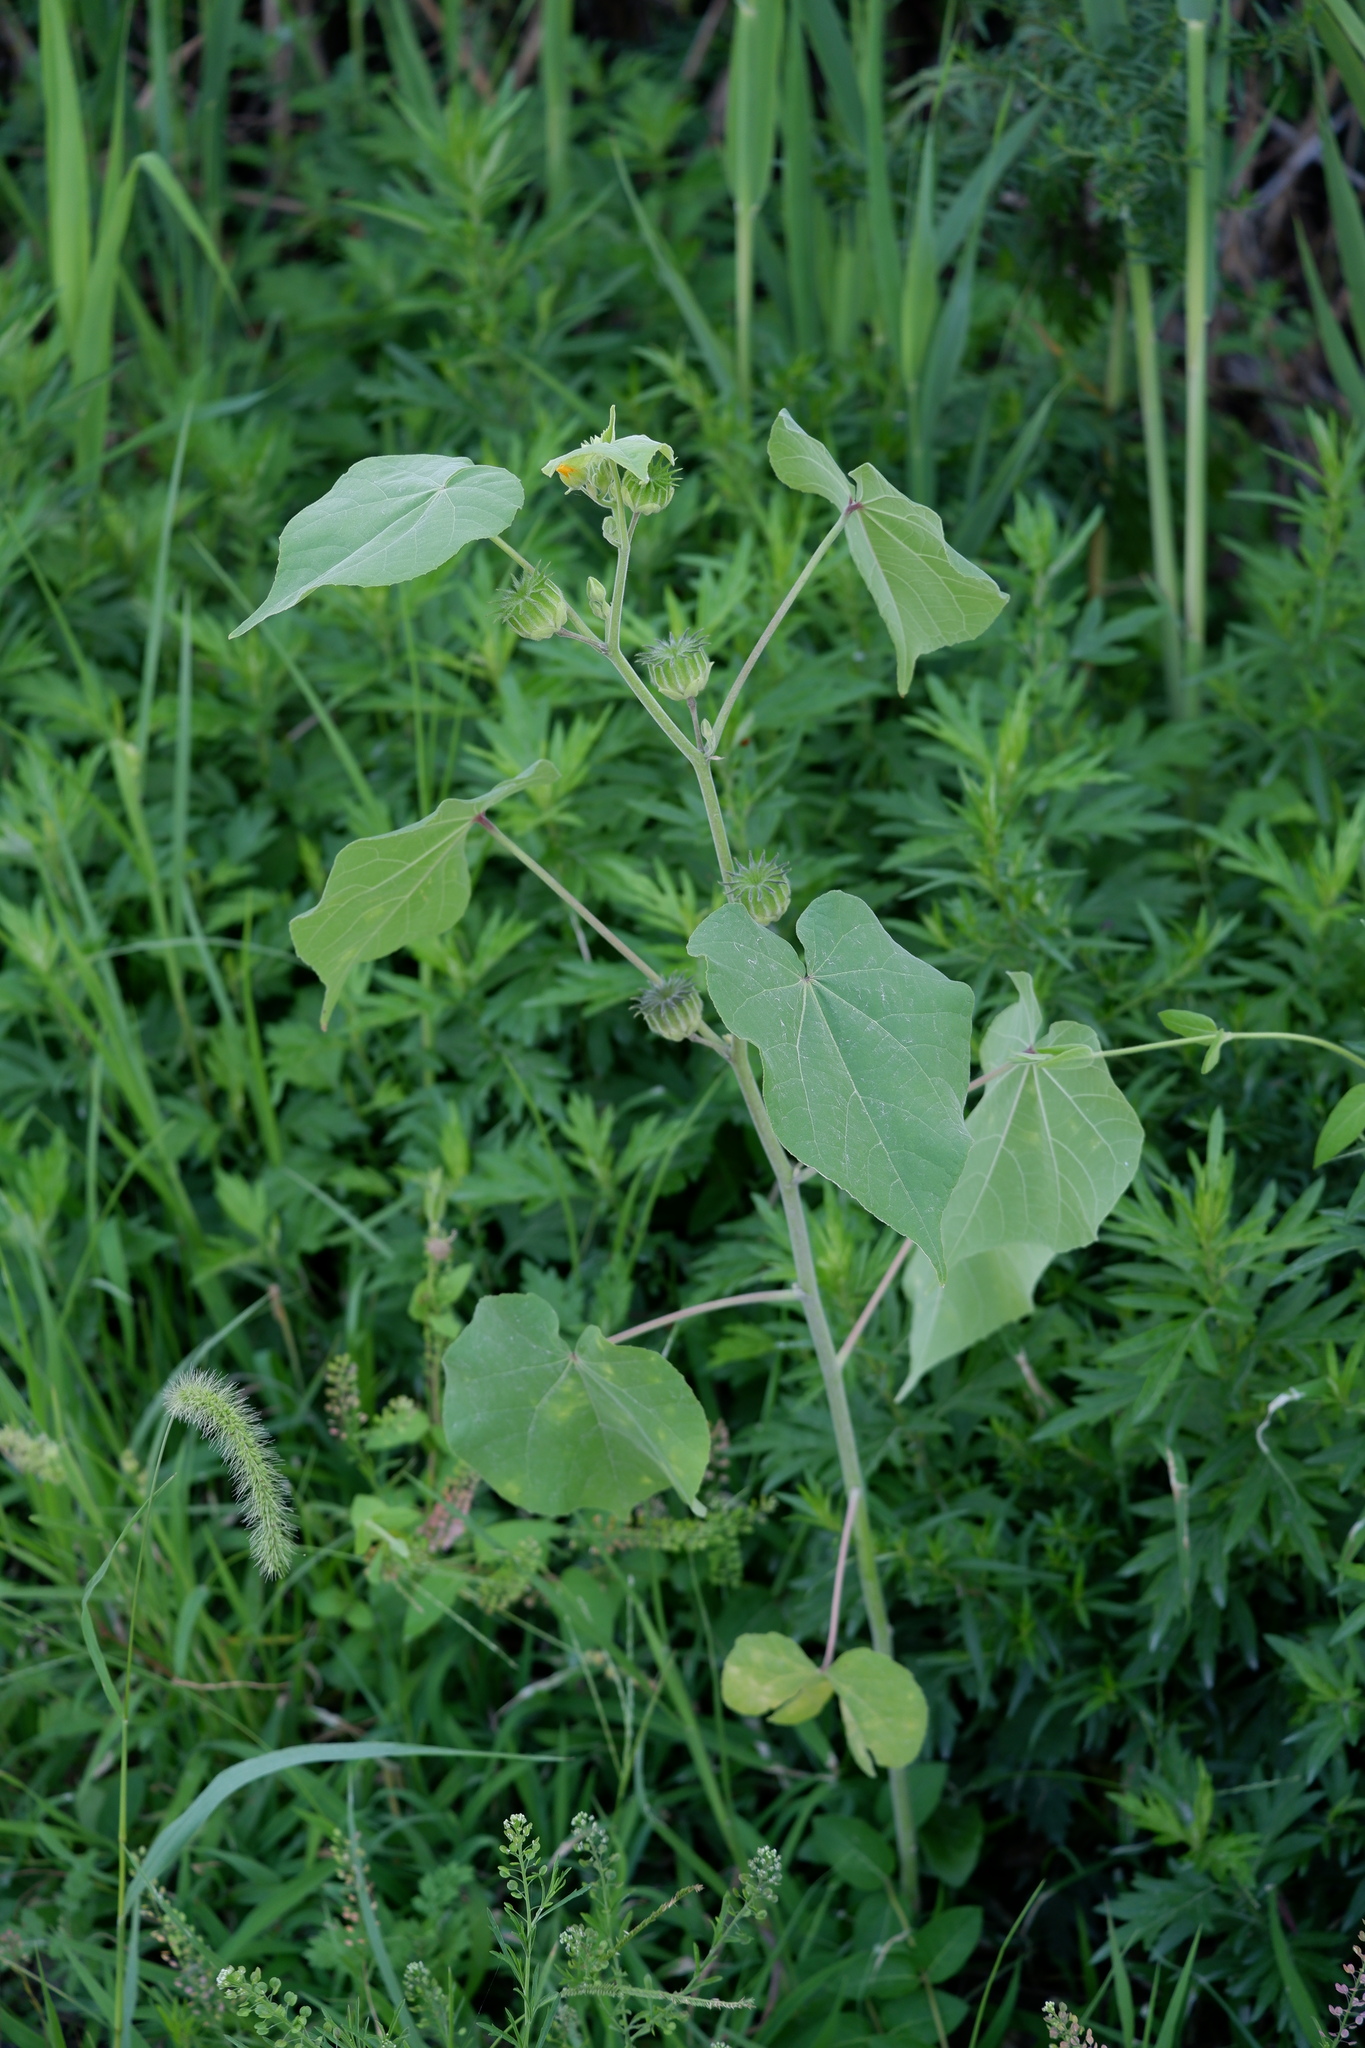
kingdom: Plantae
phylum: Tracheophyta
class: Magnoliopsida
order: Malvales
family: Malvaceae
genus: Abutilon
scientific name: Abutilon theophrasti
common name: Velvetleaf
